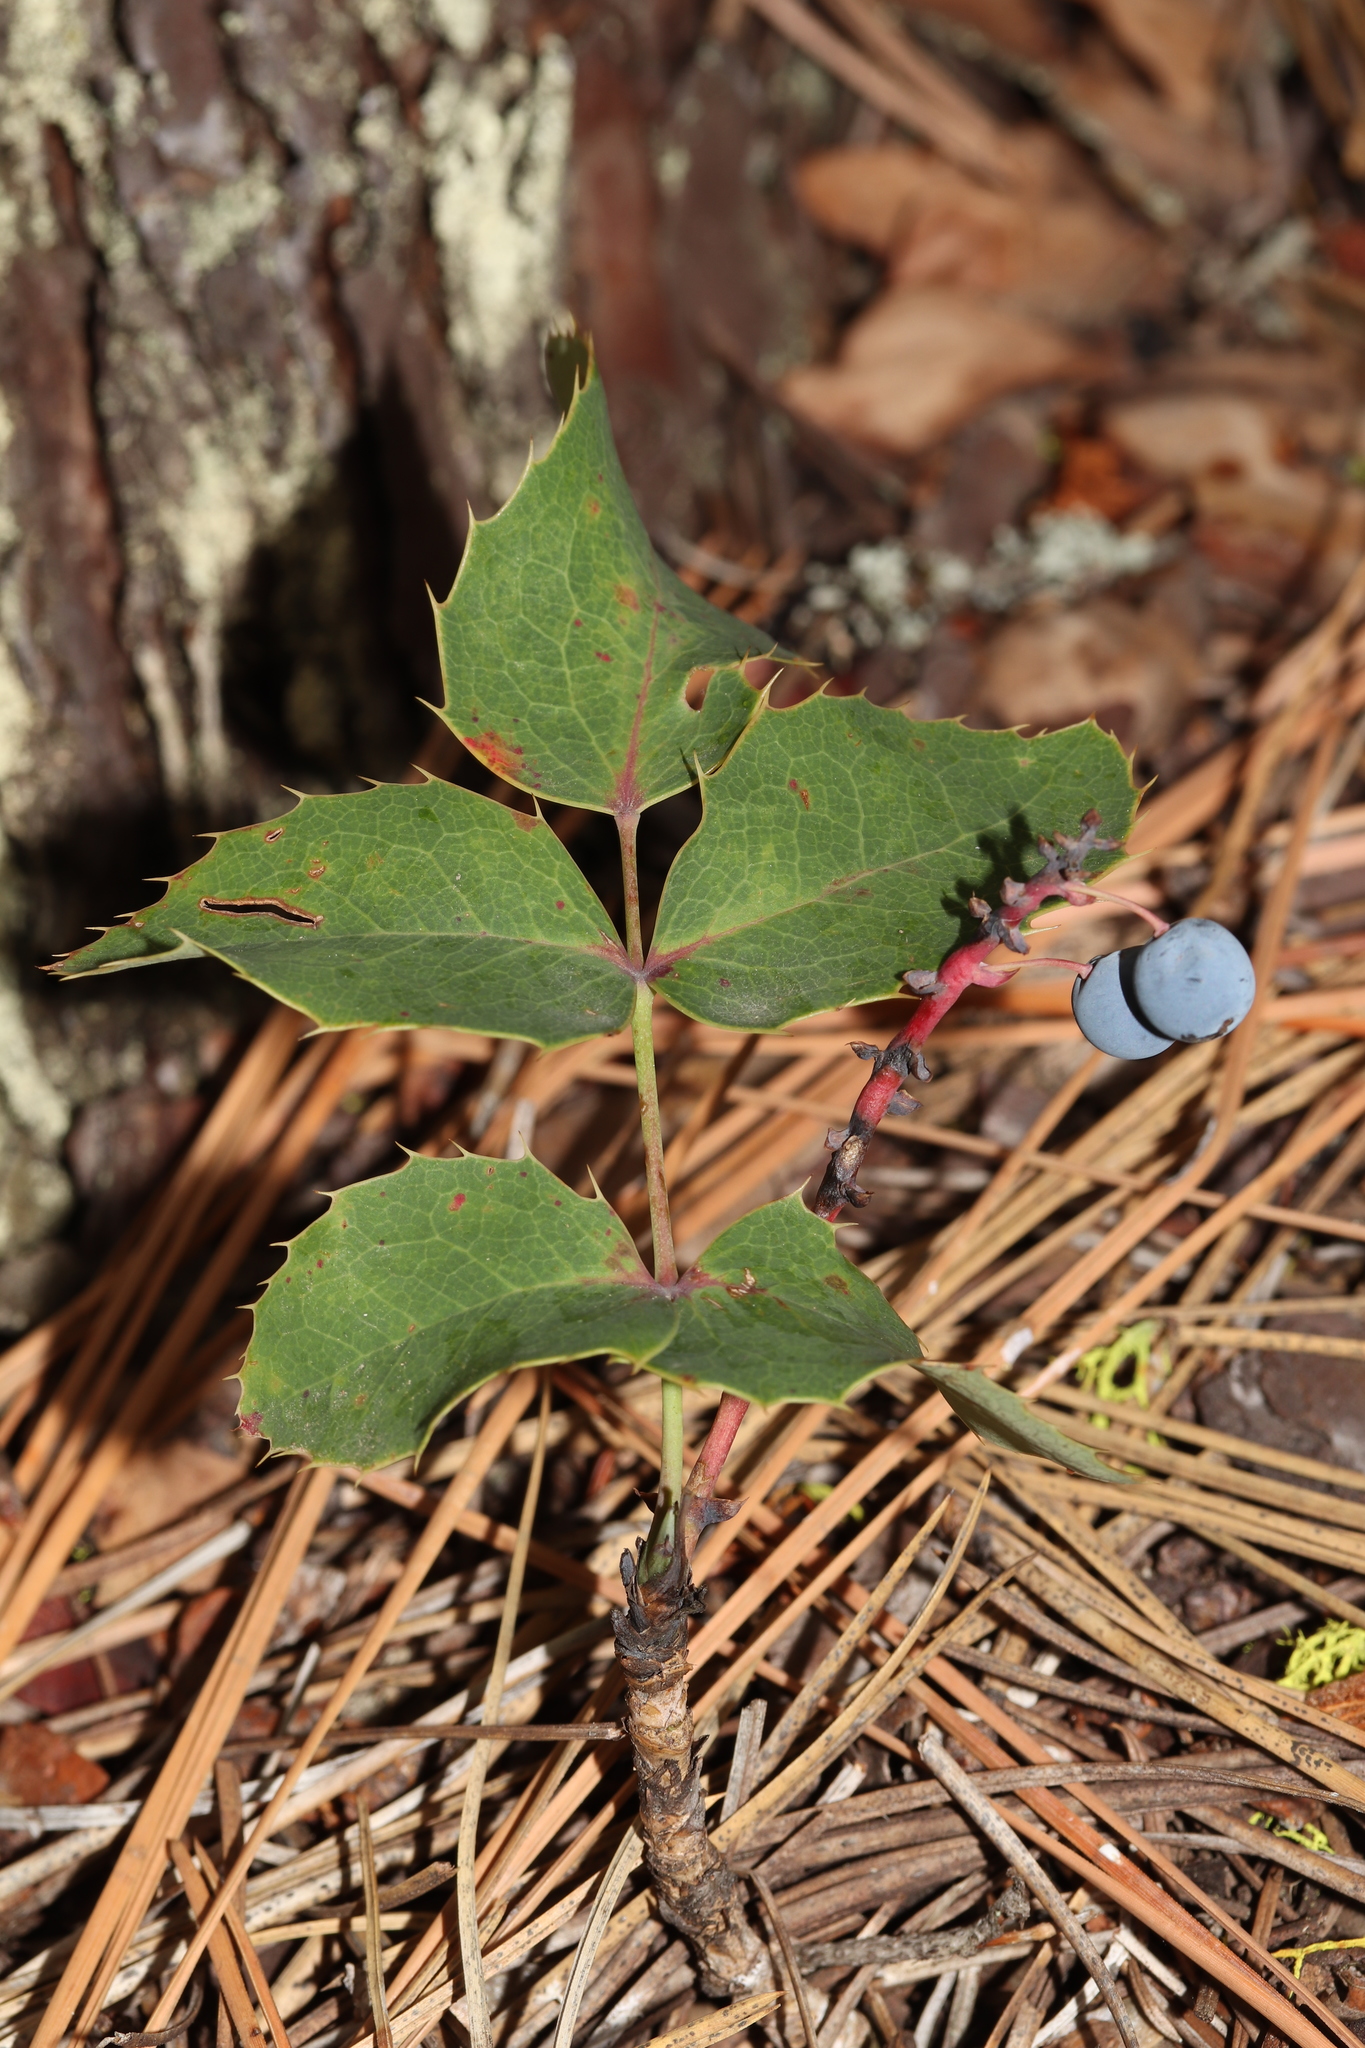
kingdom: Plantae
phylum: Tracheophyta
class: Magnoliopsida
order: Ranunculales
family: Berberidaceae
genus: Mahonia
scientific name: Mahonia repens
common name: Creeping oregon-grape
